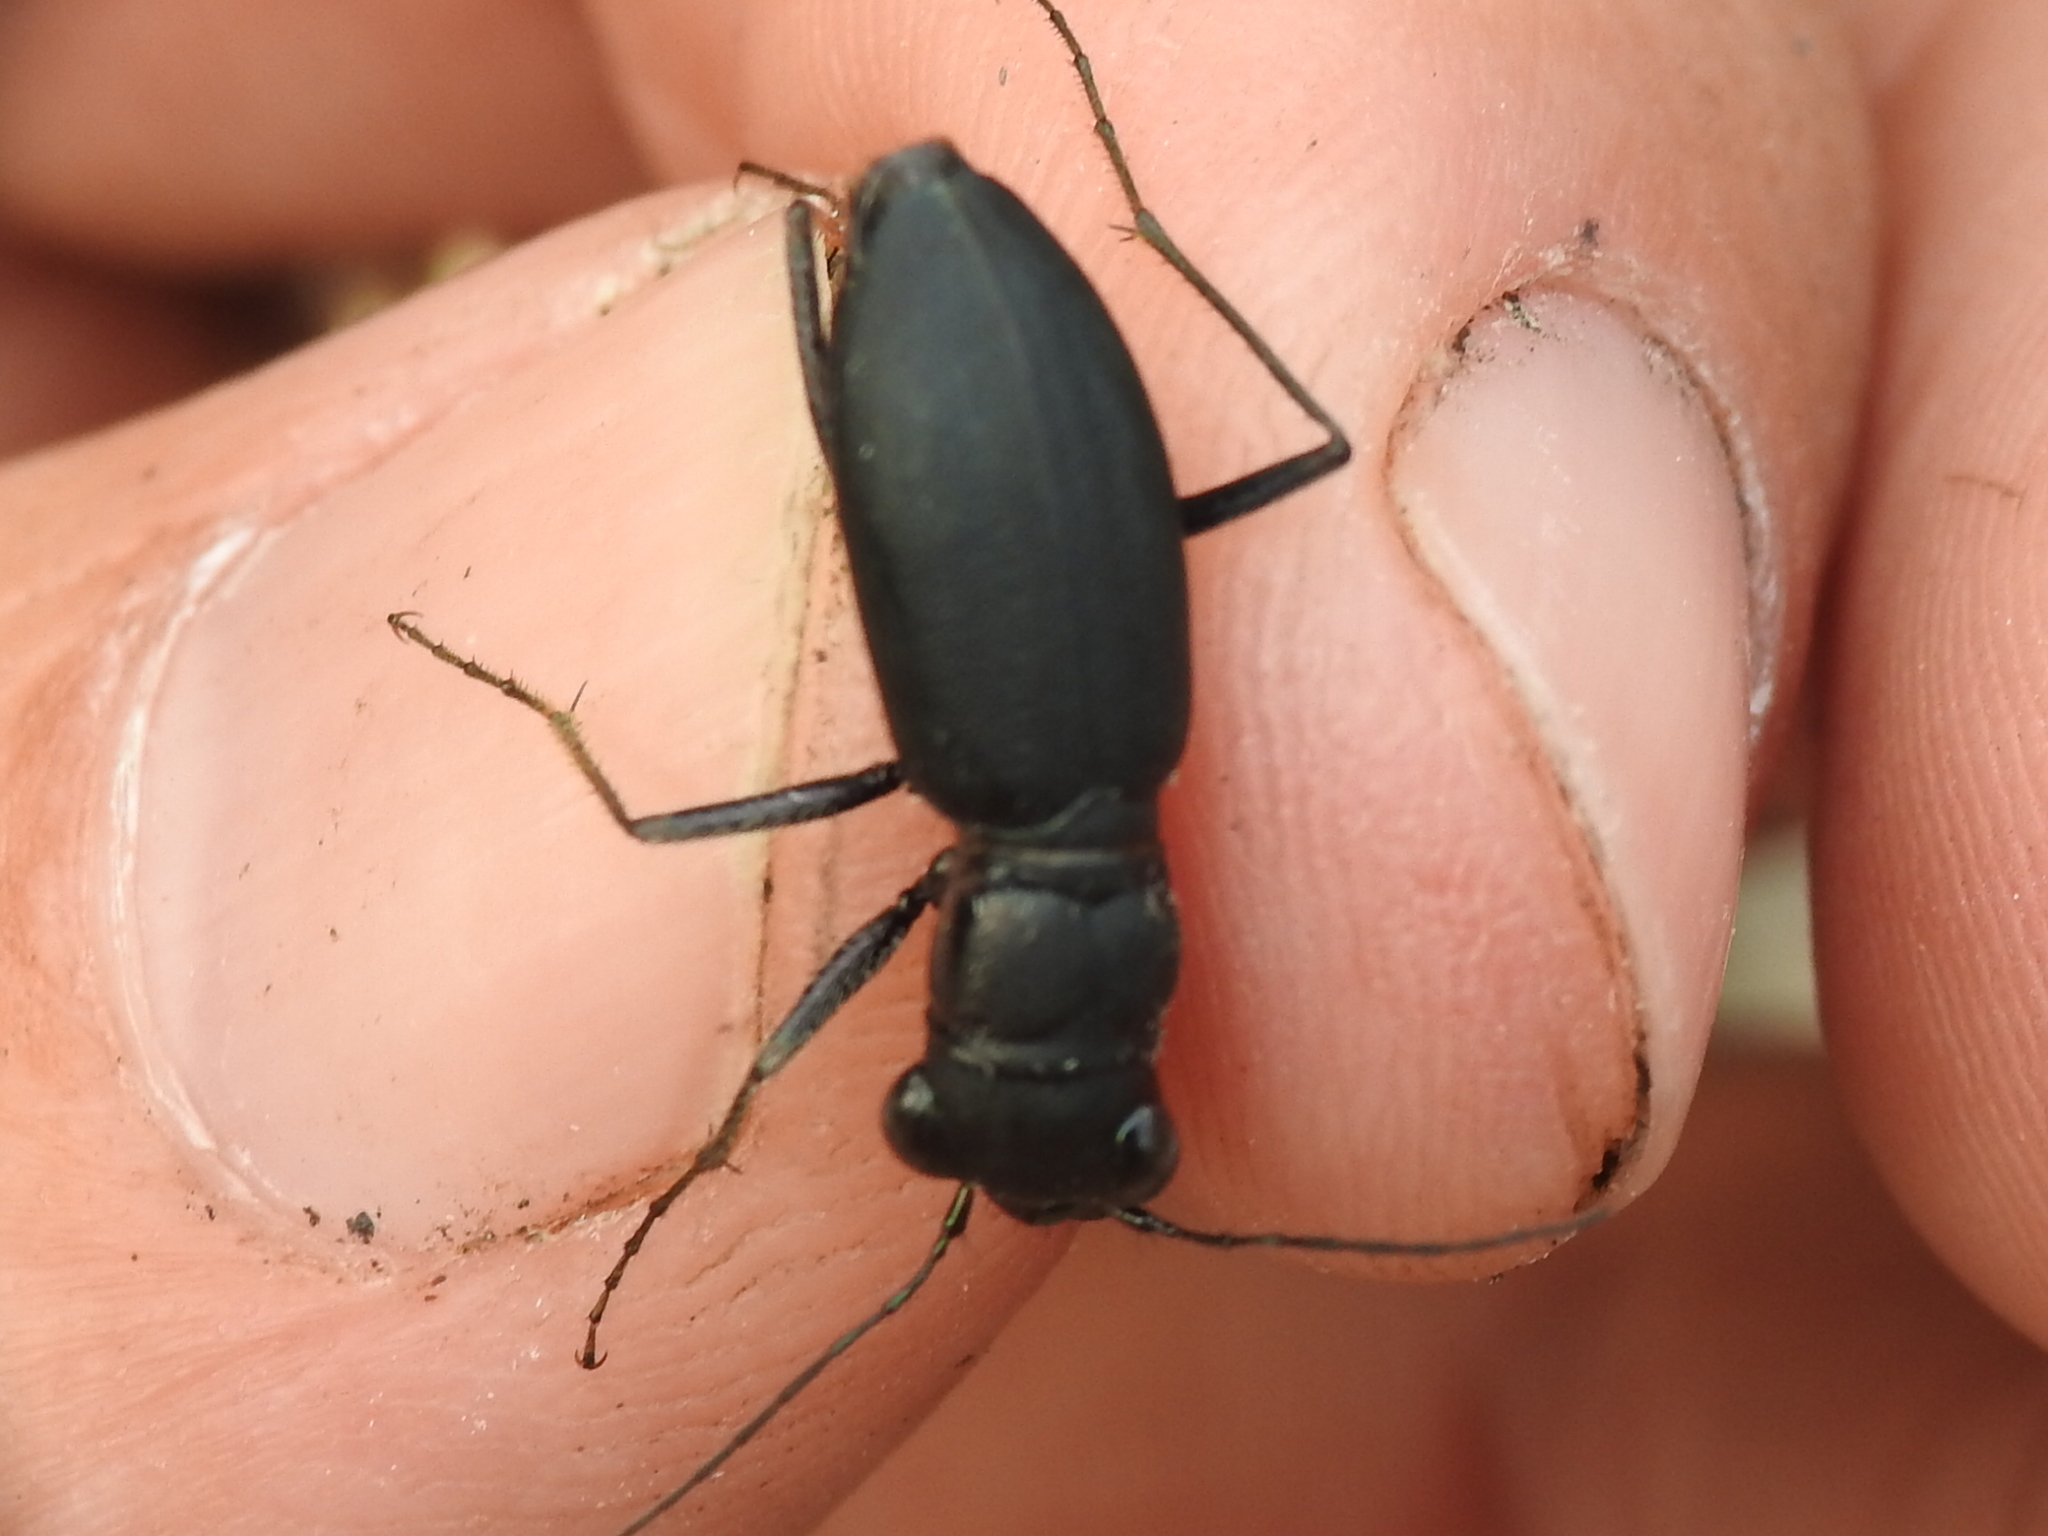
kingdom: Animalia
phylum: Arthropoda
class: Insecta
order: Coleoptera
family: Carabidae
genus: Dromochorus
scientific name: Dromochorus belfragei
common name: Loamy-ground dromo tiger beetle
